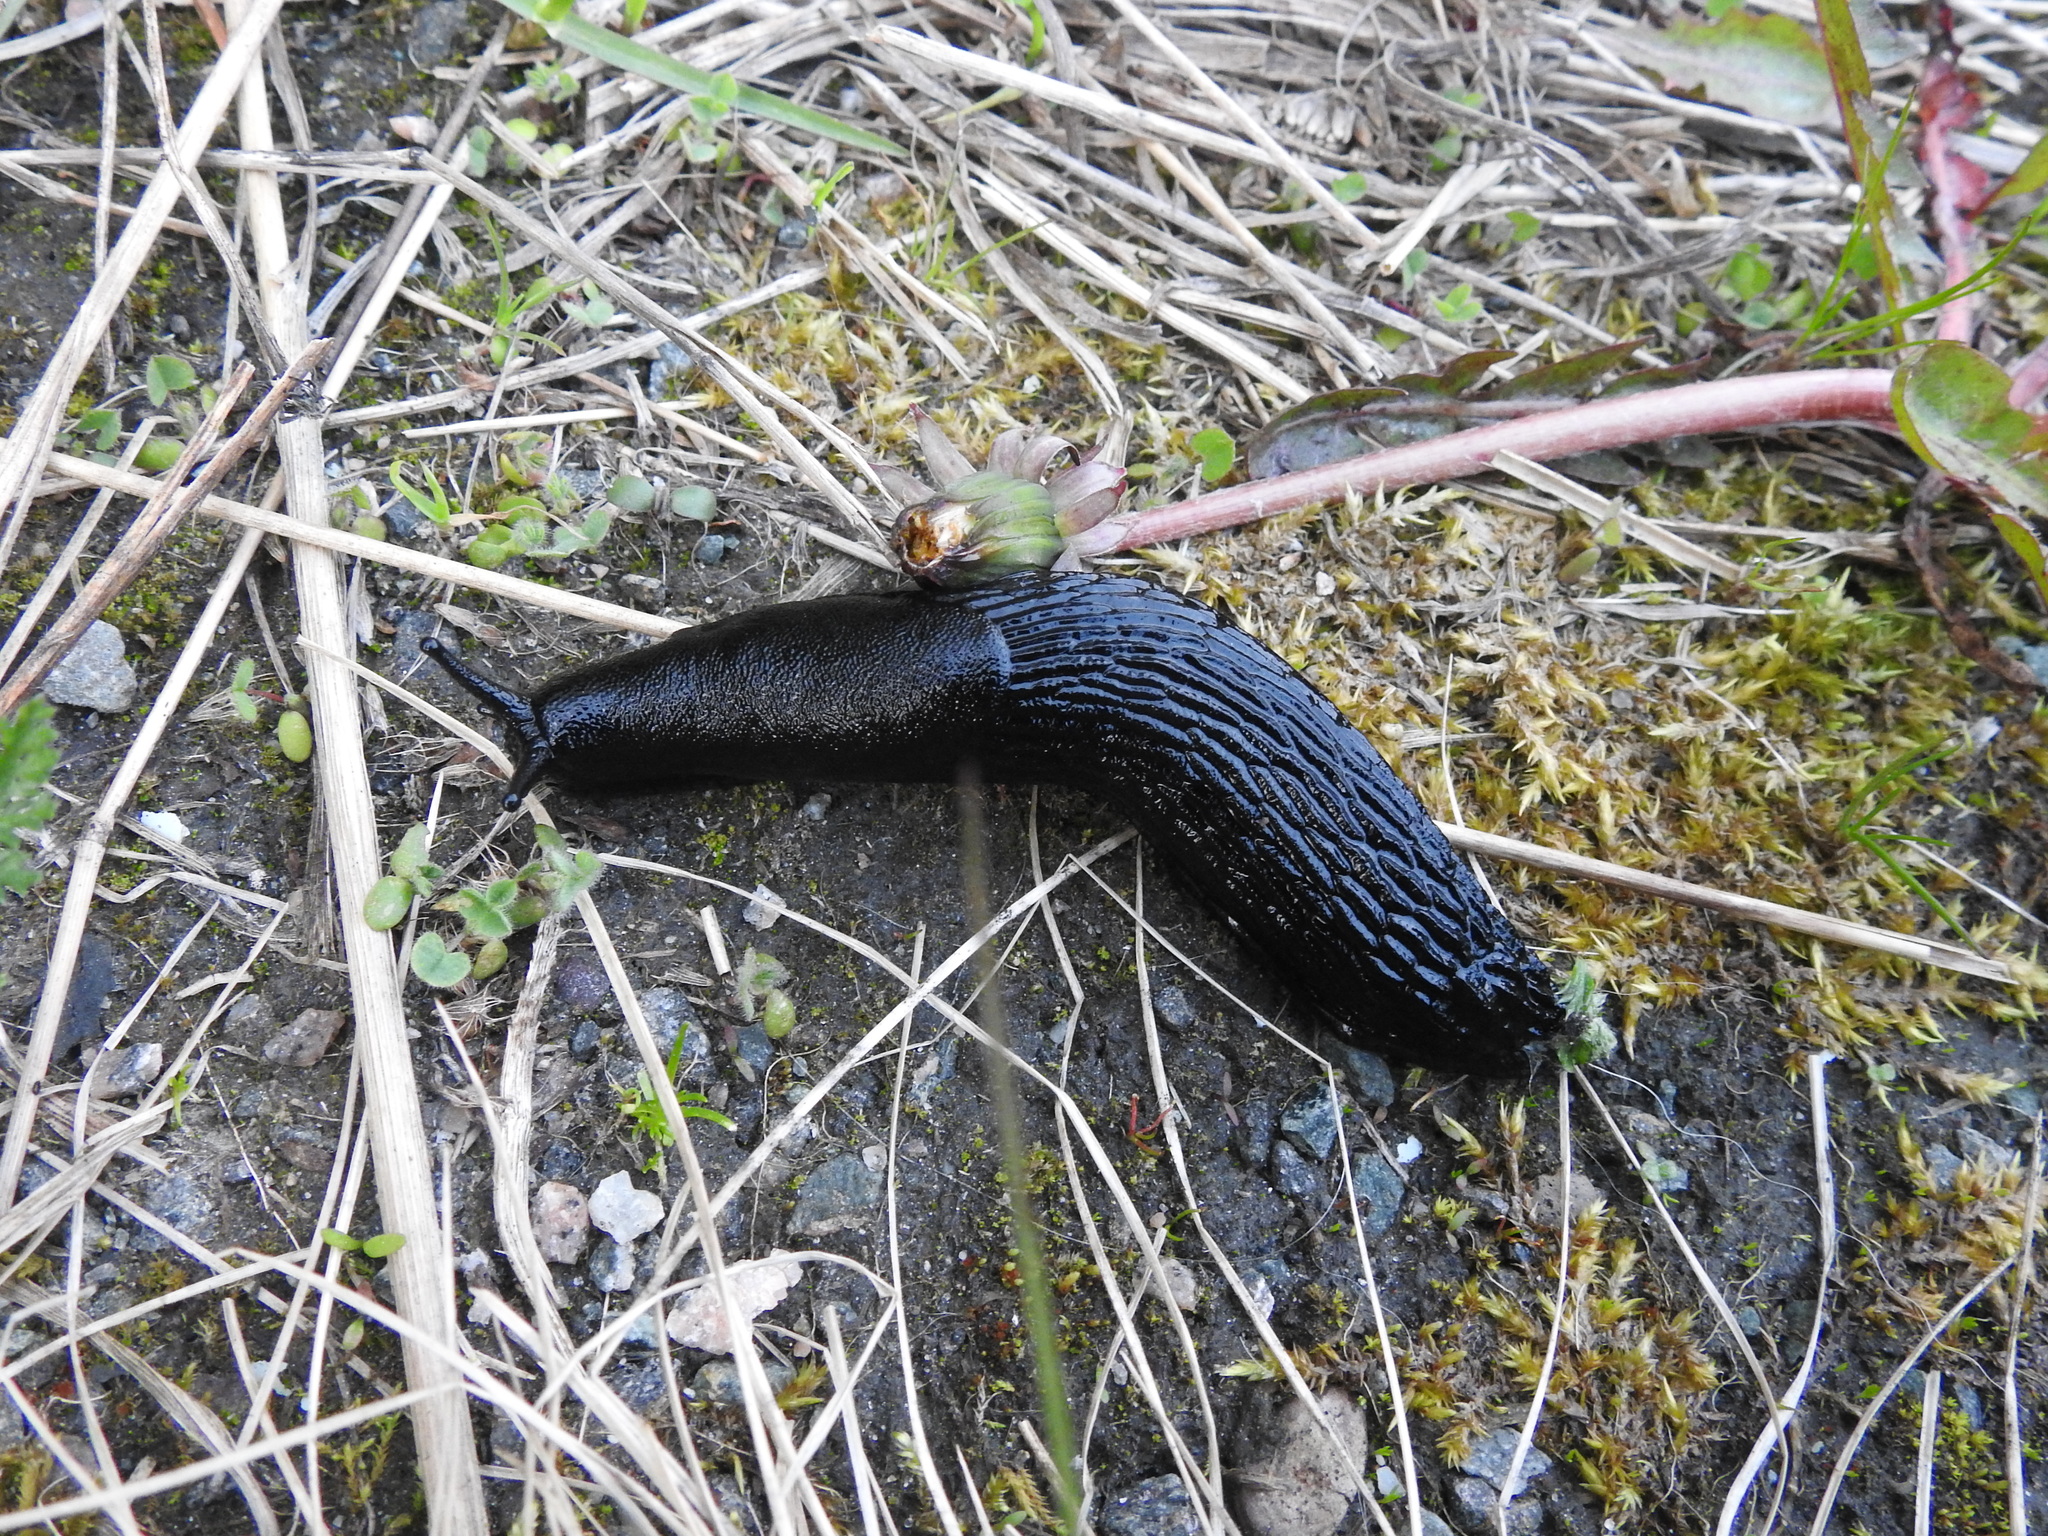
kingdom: Animalia
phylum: Mollusca
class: Gastropoda
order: Stylommatophora
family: Arionidae
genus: Arion
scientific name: Arion ater
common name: Black arion
